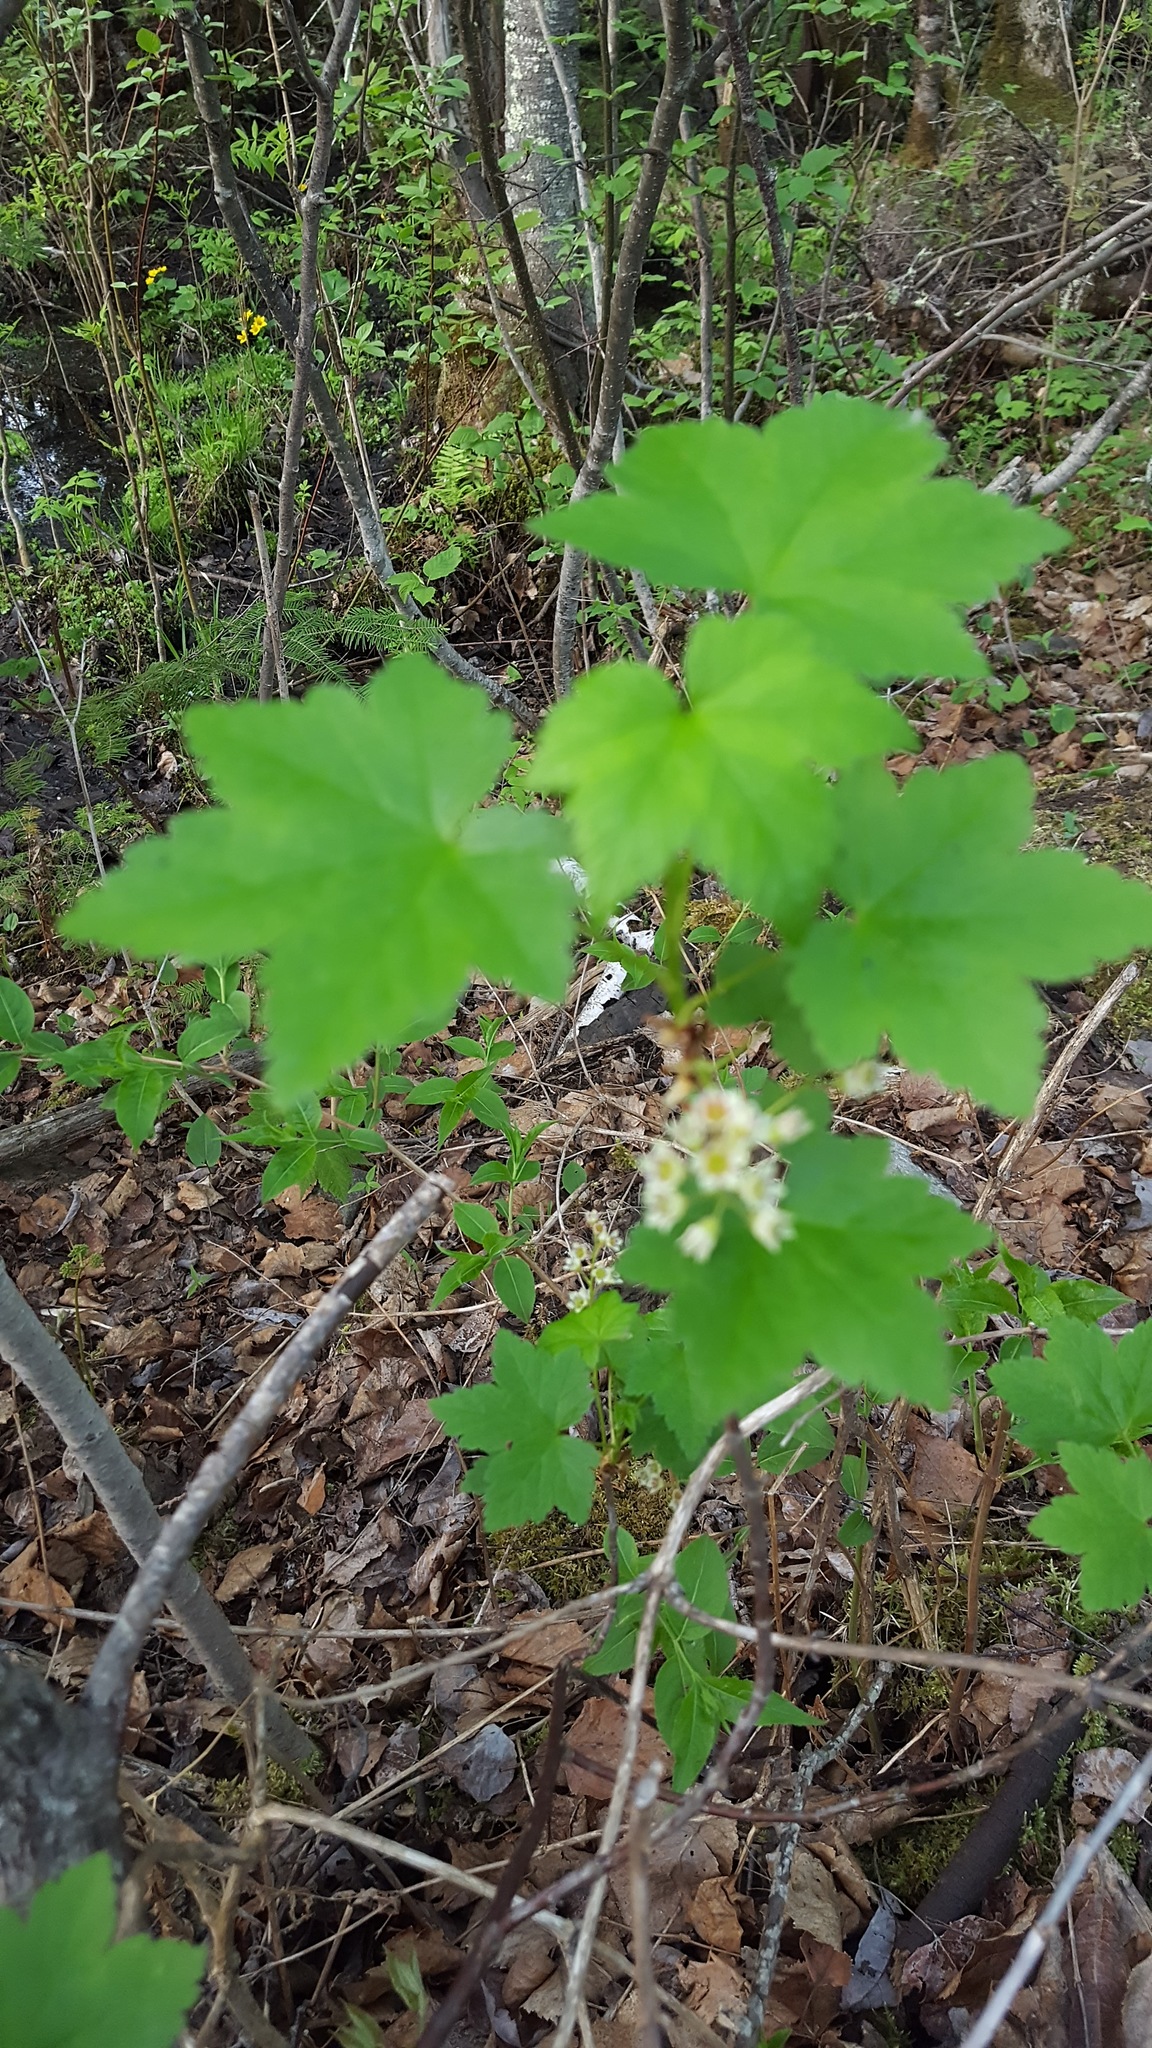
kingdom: Plantae
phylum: Tracheophyta
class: Magnoliopsida
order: Saxifragales
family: Grossulariaceae
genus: Ribes
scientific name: Ribes glandulosum
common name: Skunk currant
